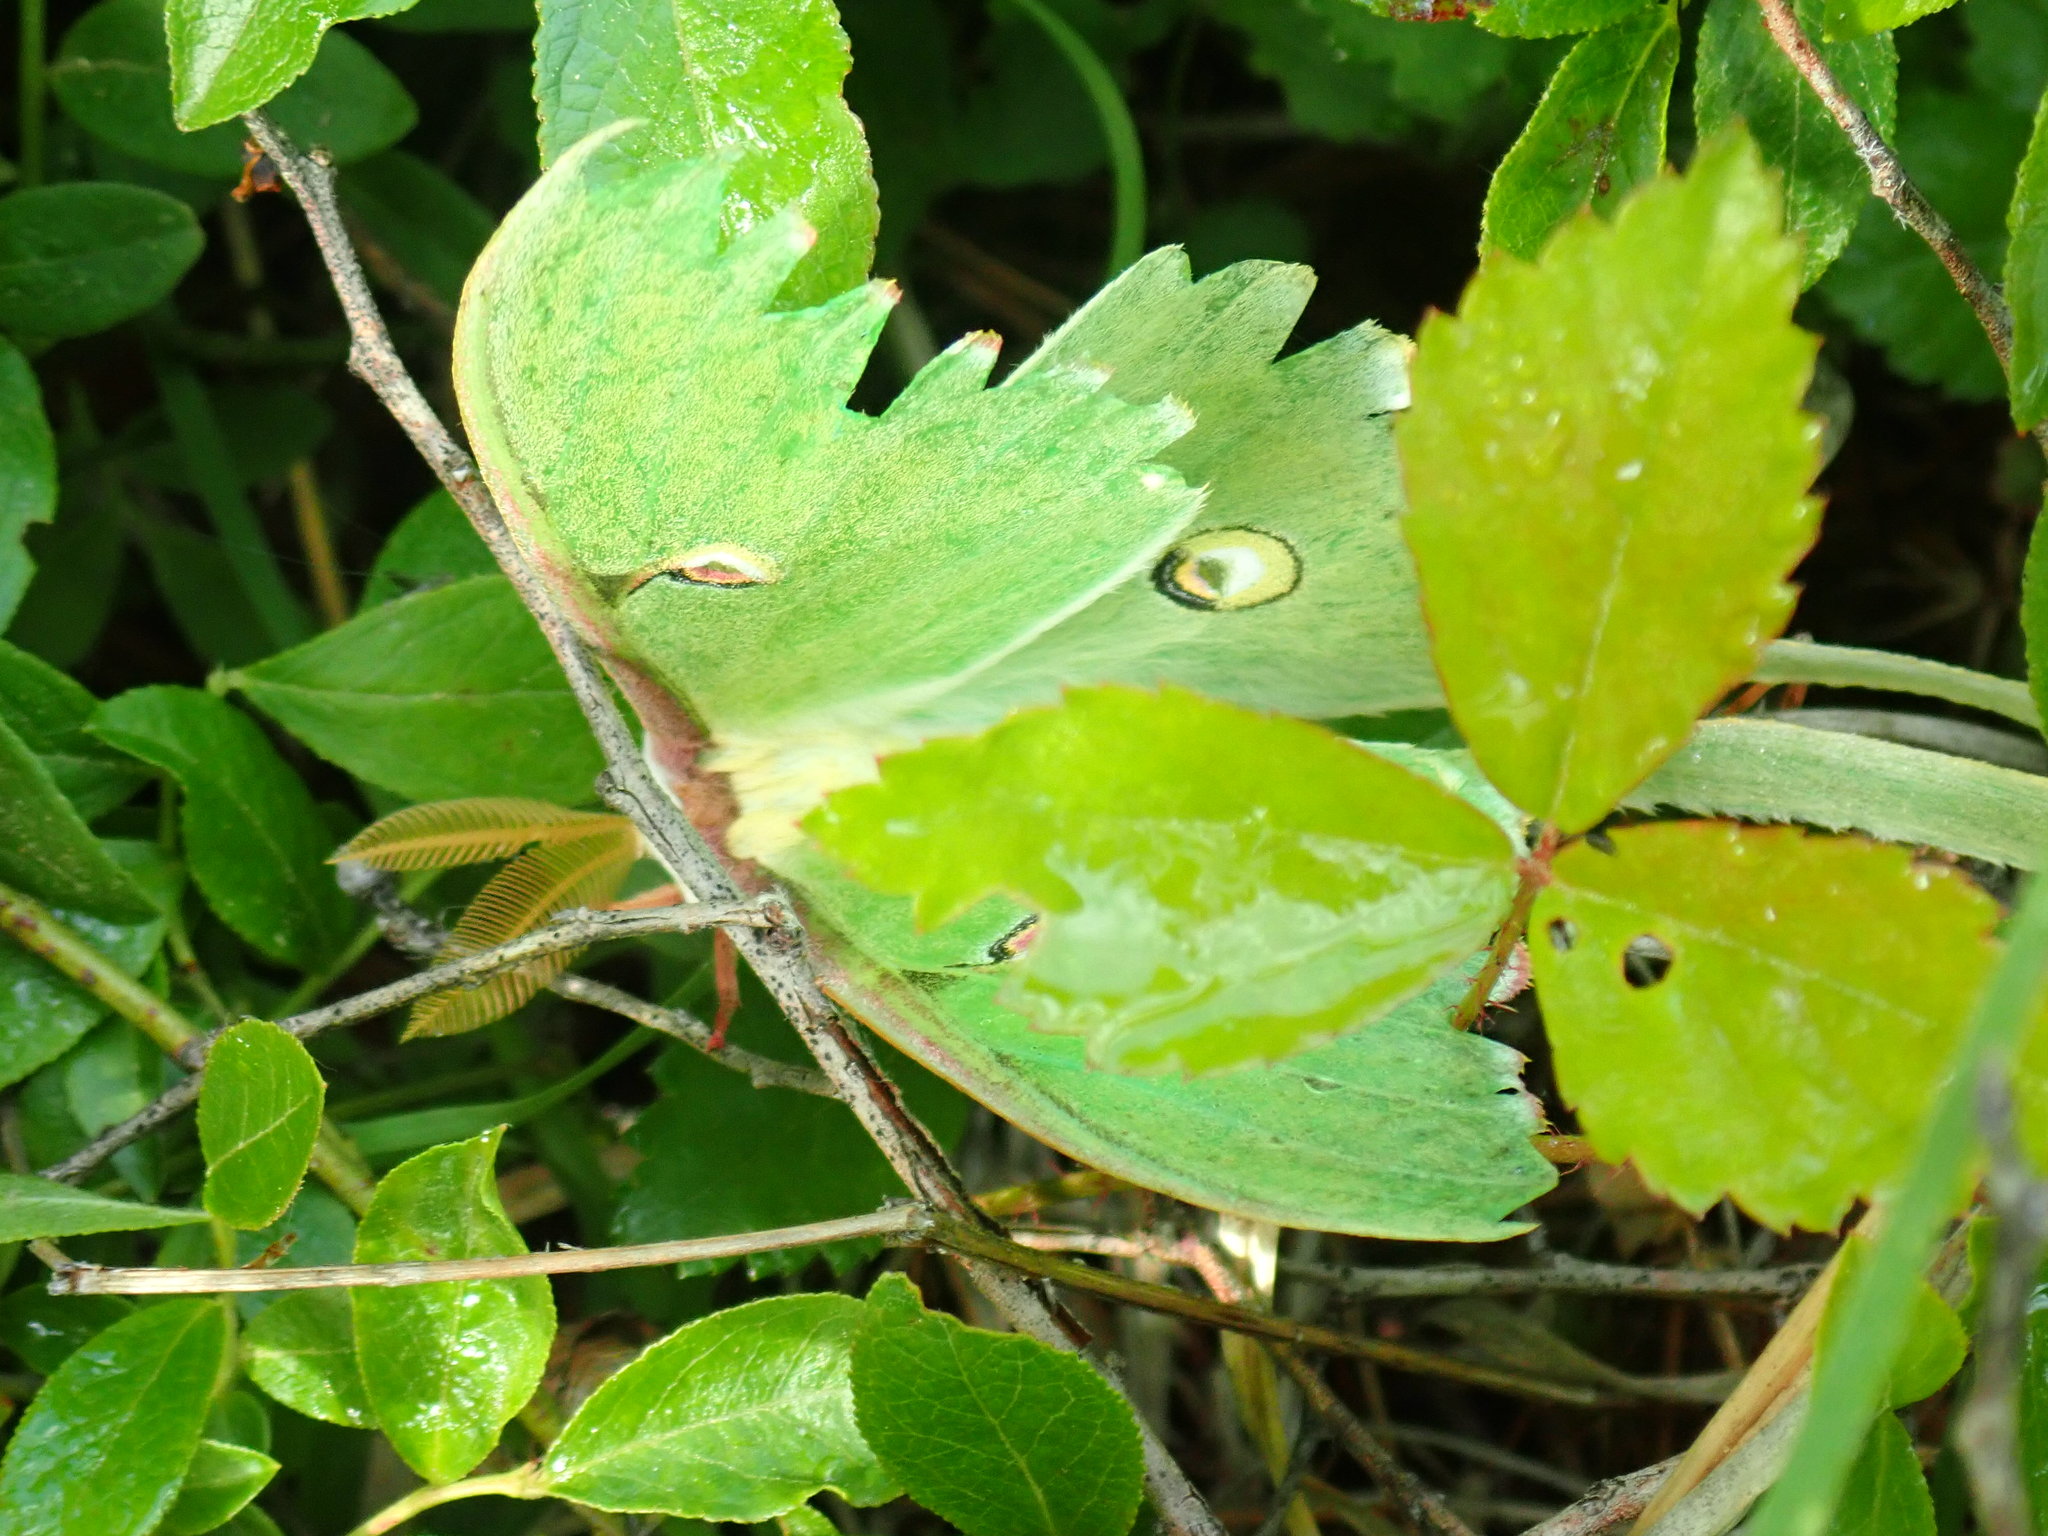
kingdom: Animalia
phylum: Arthropoda
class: Insecta
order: Lepidoptera
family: Saturniidae
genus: Actias
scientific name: Actias luna
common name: Luna moth
